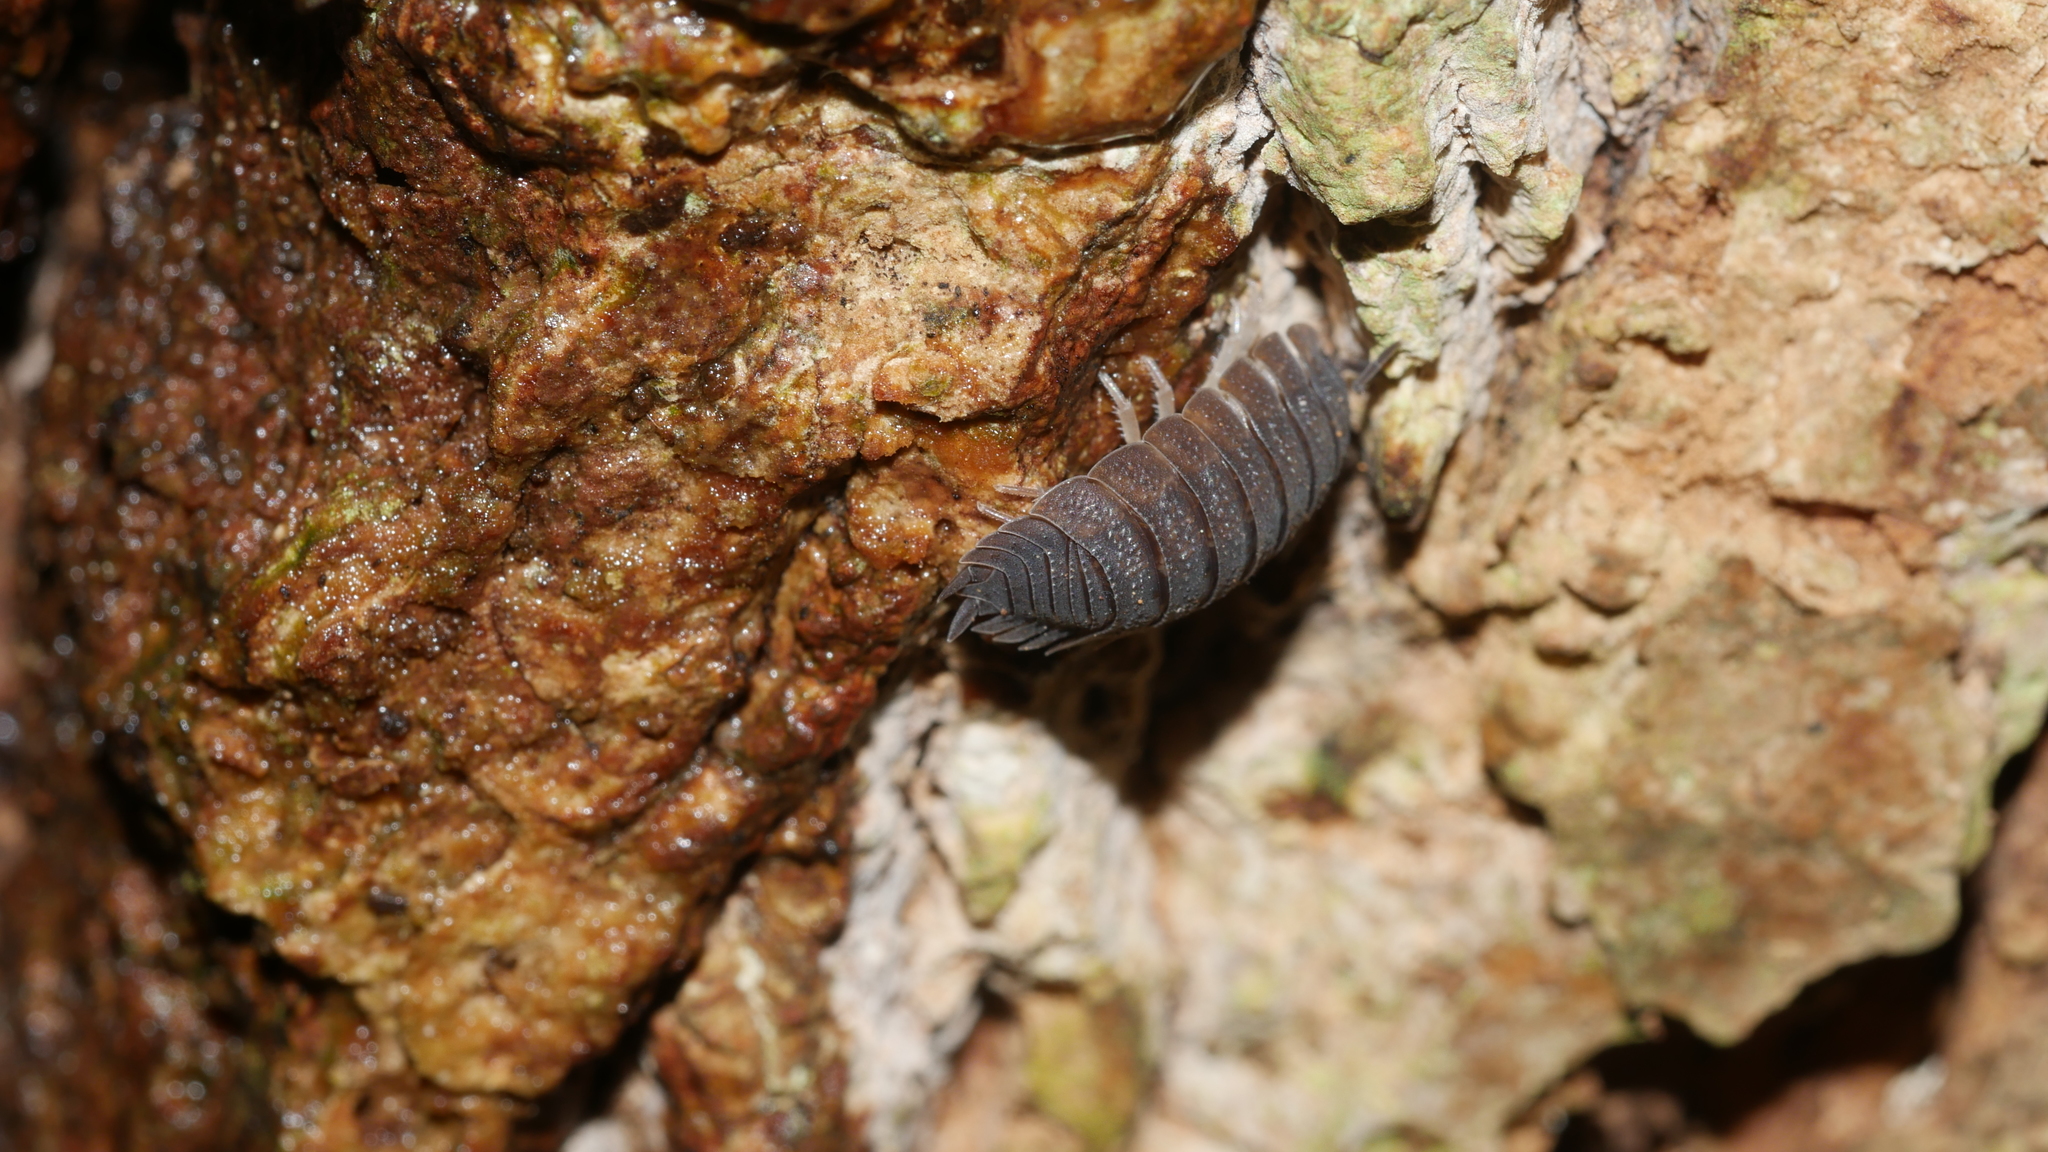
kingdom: Animalia
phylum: Arthropoda
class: Malacostraca
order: Isopoda
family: Porcellionidae
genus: Porcellio
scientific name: Porcellio scaber
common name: Common rough woodlouse
